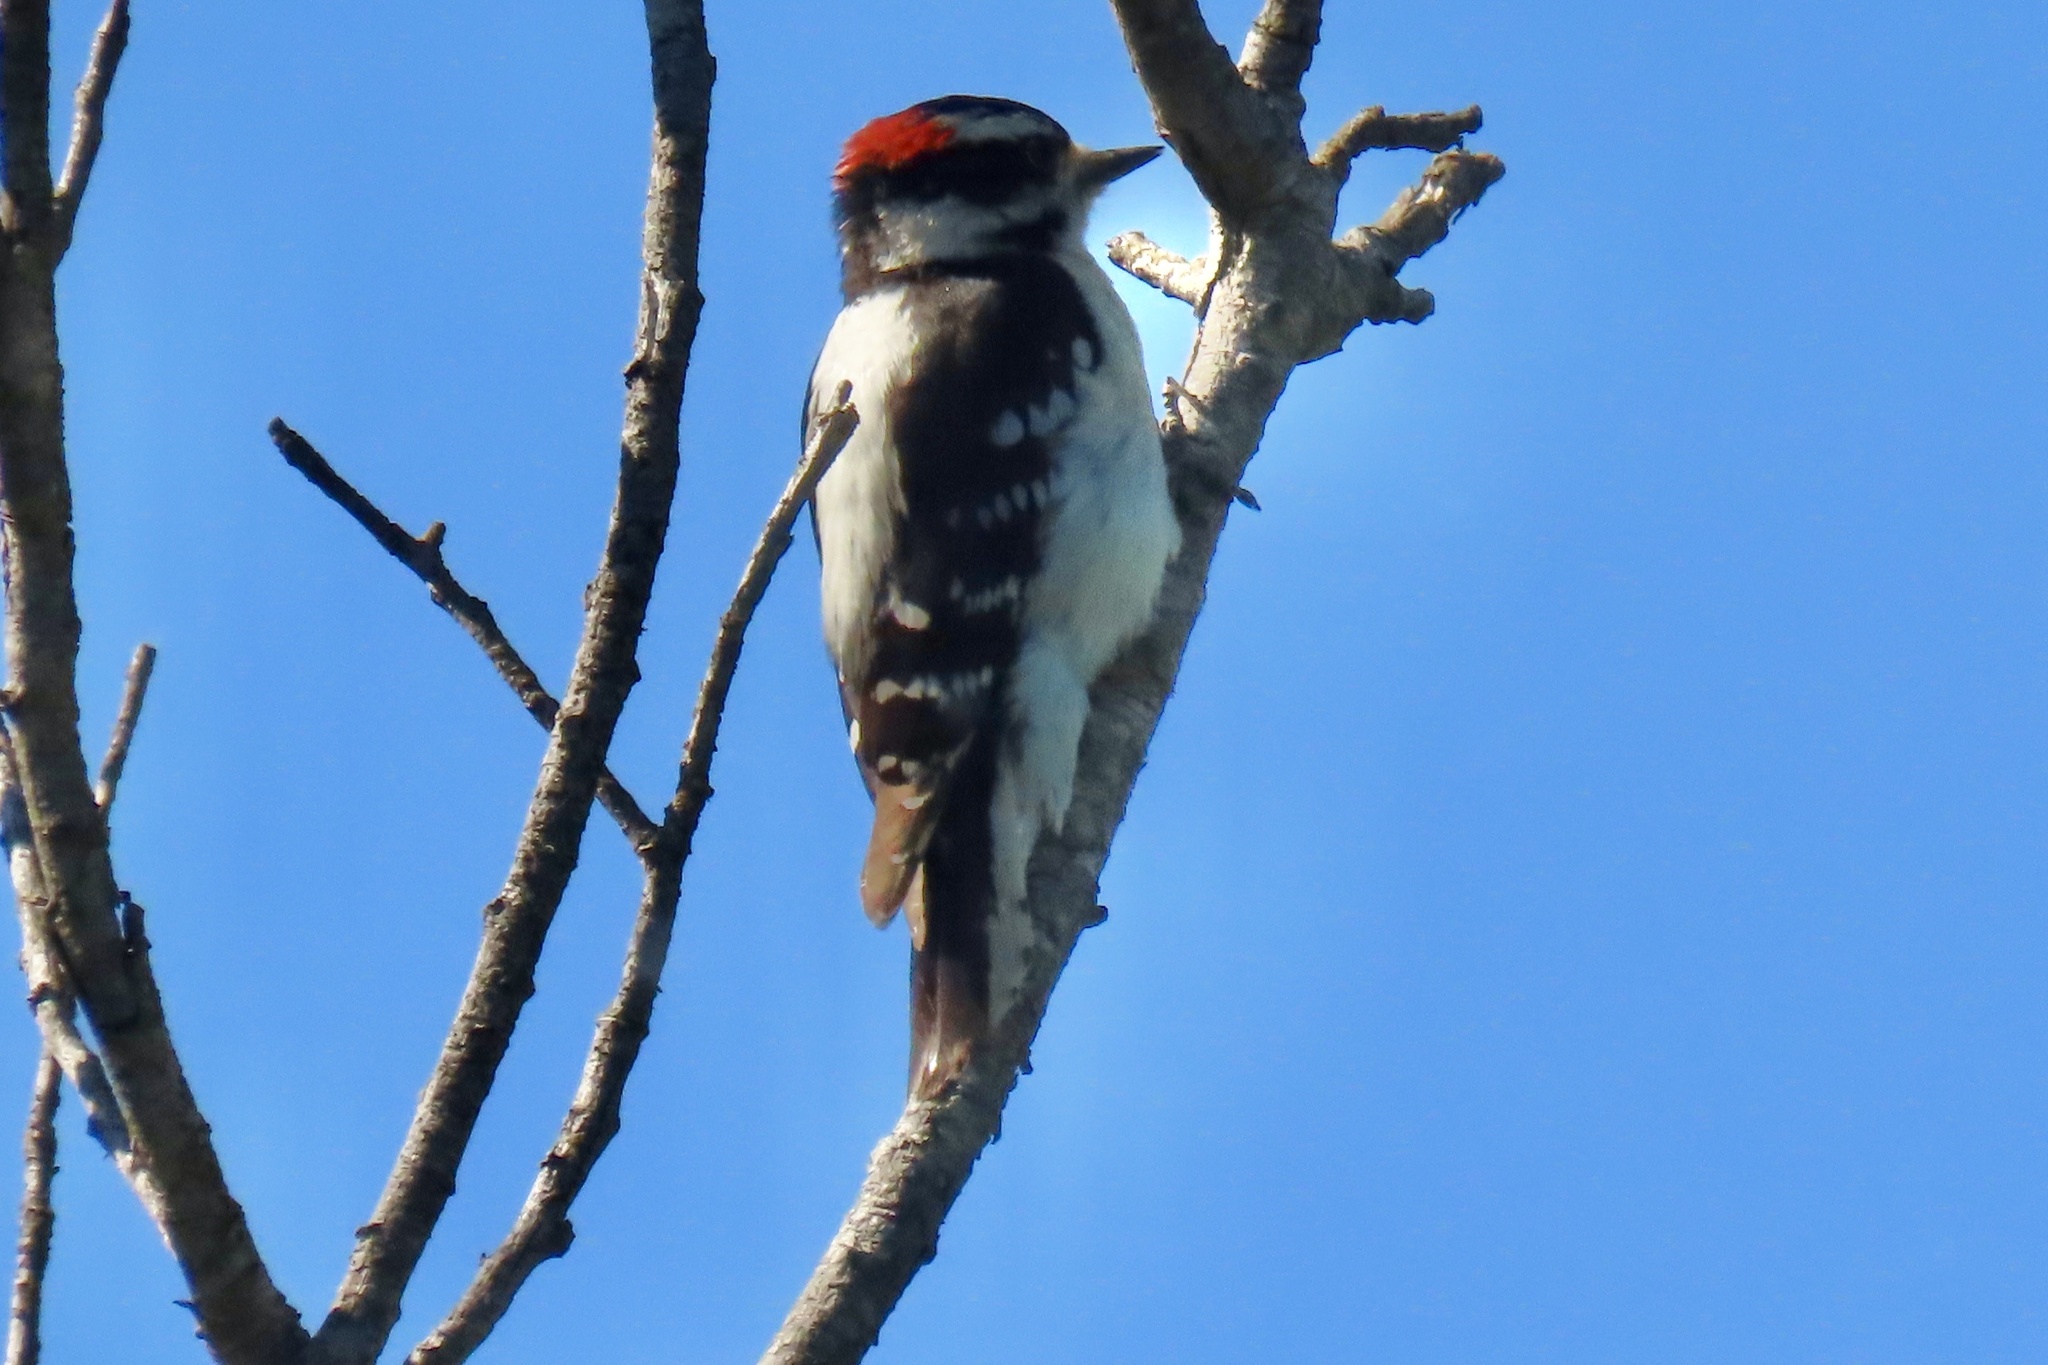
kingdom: Animalia
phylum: Chordata
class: Aves
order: Piciformes
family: Picidae
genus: Dryobates
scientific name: Dryobates pubescens
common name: Downy woodpecker
